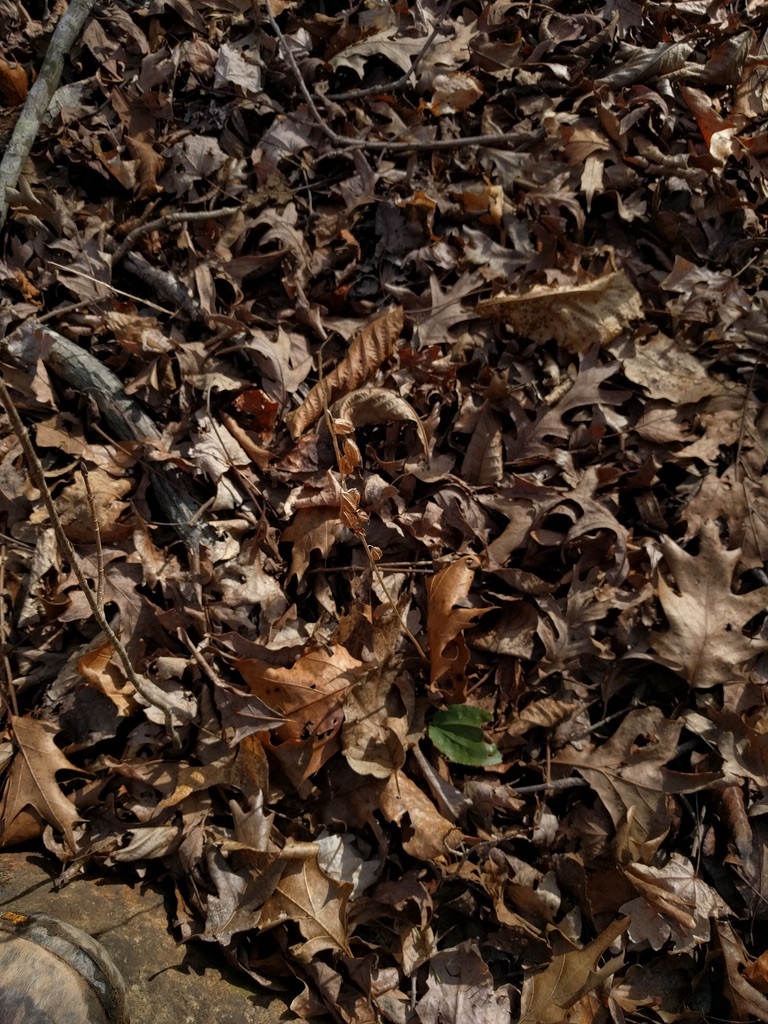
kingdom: Plantae
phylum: Tracheophyta
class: Liliopsida
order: Asparagales
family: Orchidaceae
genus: Tipularia
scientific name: Tipularia discolor
